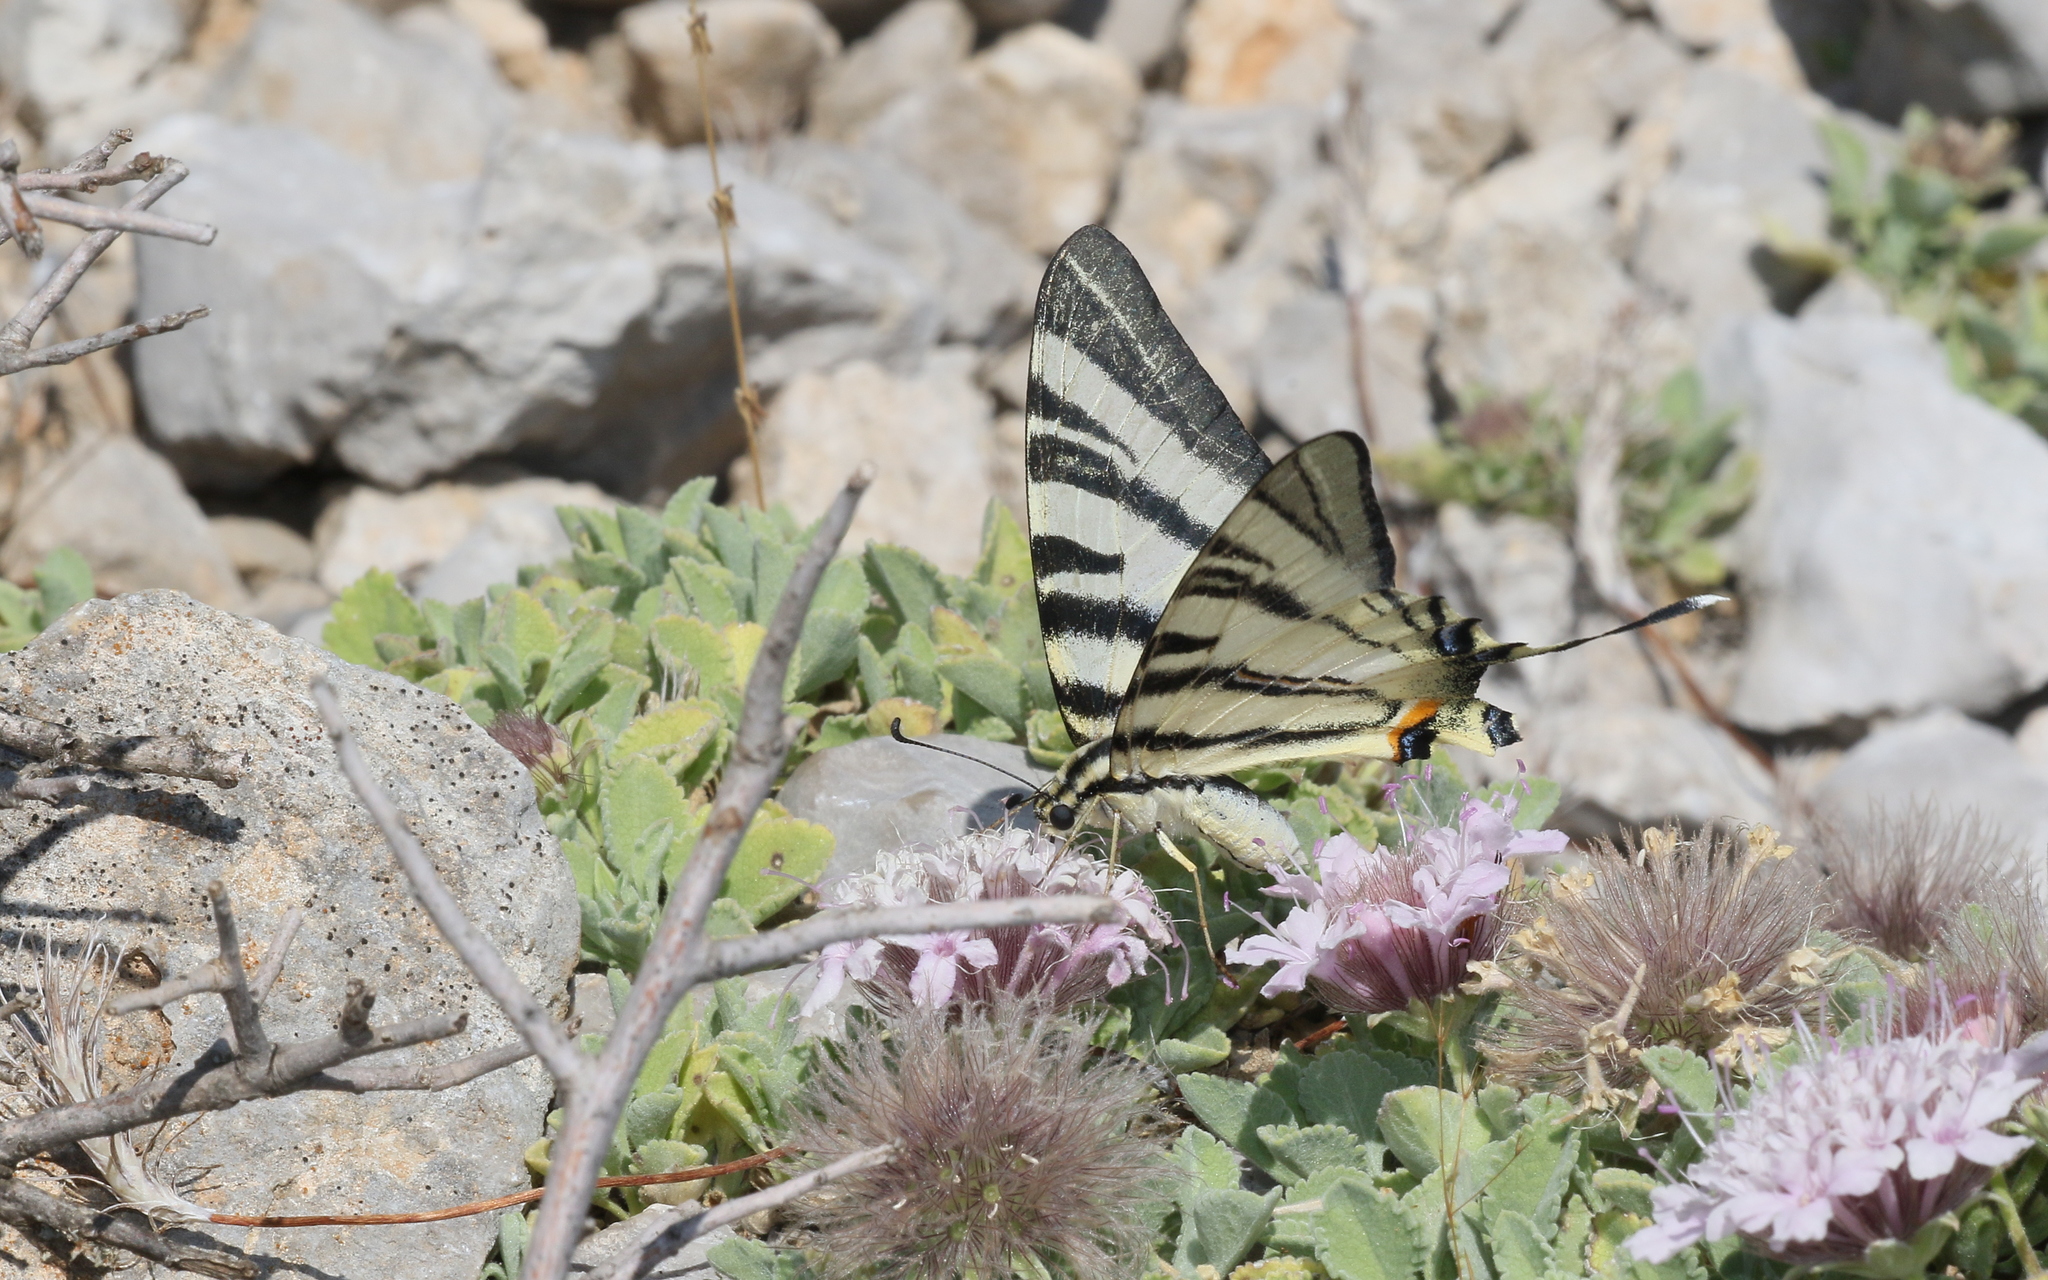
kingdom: Animalia
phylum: Arthropoda
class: Insecta
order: Lepidoptera
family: Papilionidae
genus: Iphiclides
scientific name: Iphiclides podalirius
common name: Scarce swallowtail
